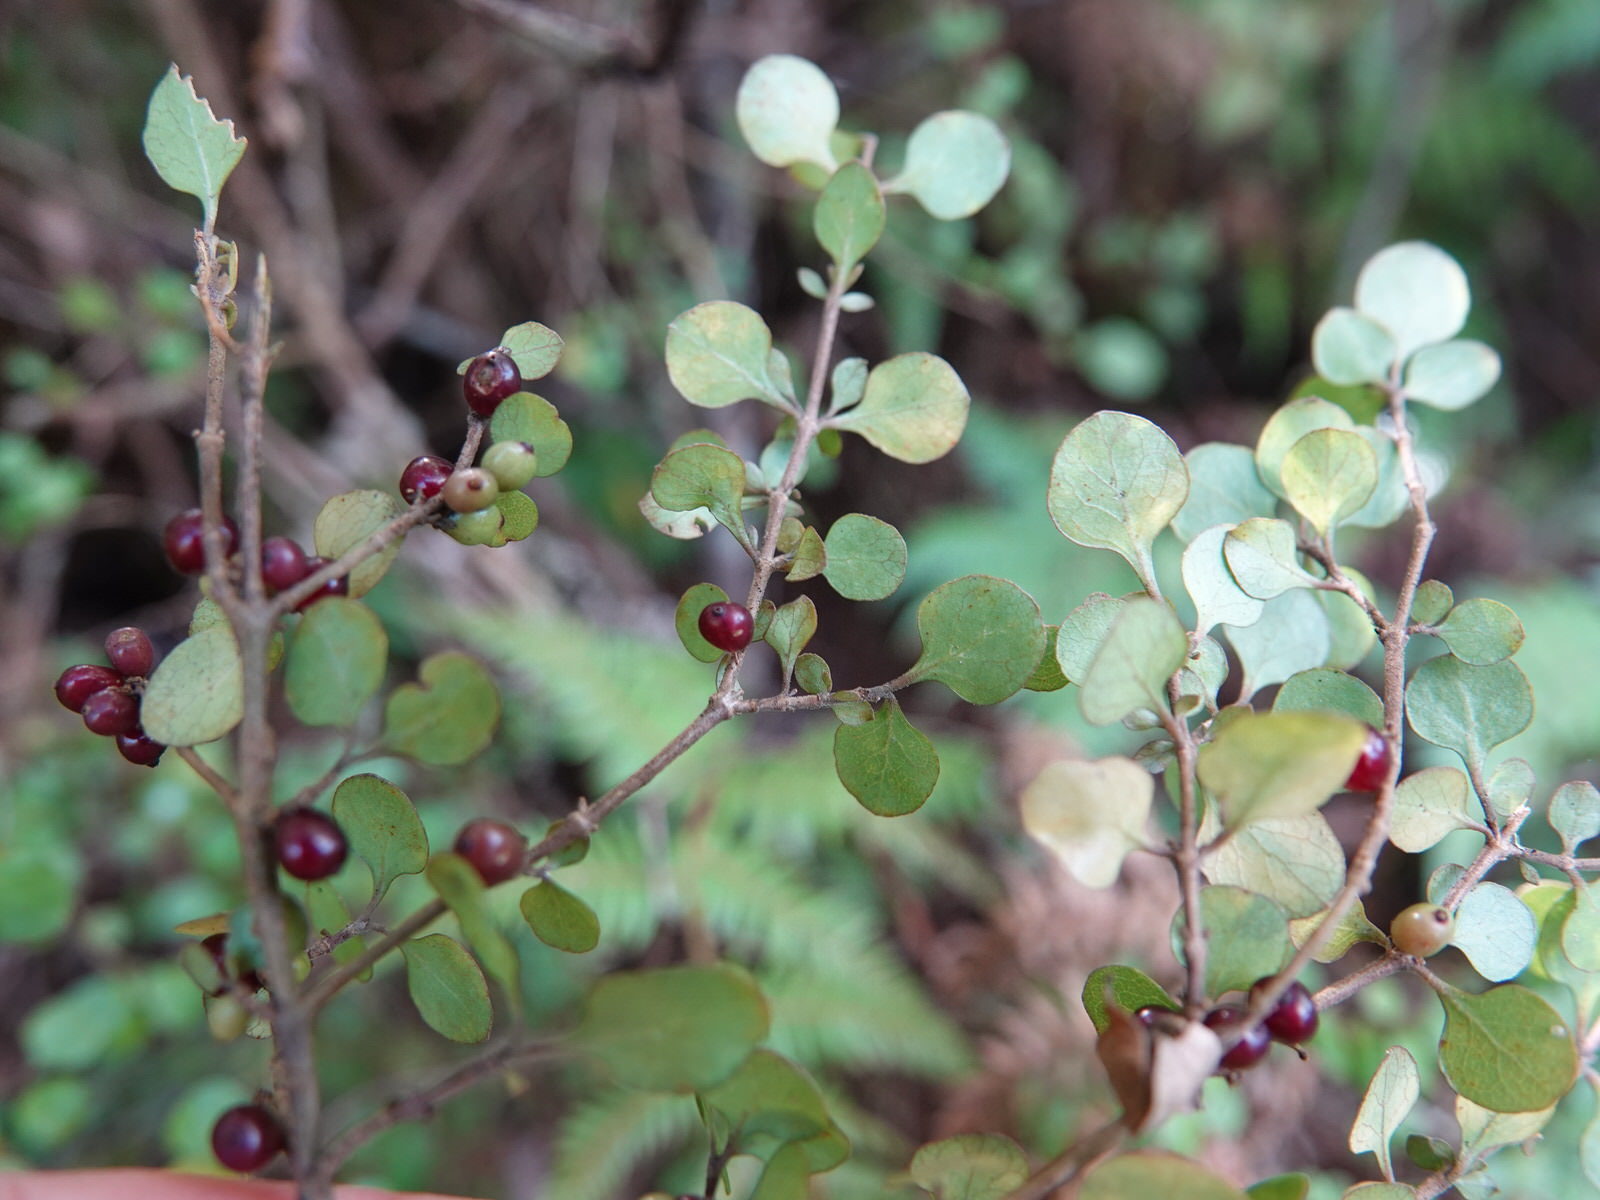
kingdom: Plantae
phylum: Tracheophyta
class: Magnoliopsida
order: Gentianales
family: Rubiaceae
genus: Coprosma
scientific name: Coprosma rhamnoides
